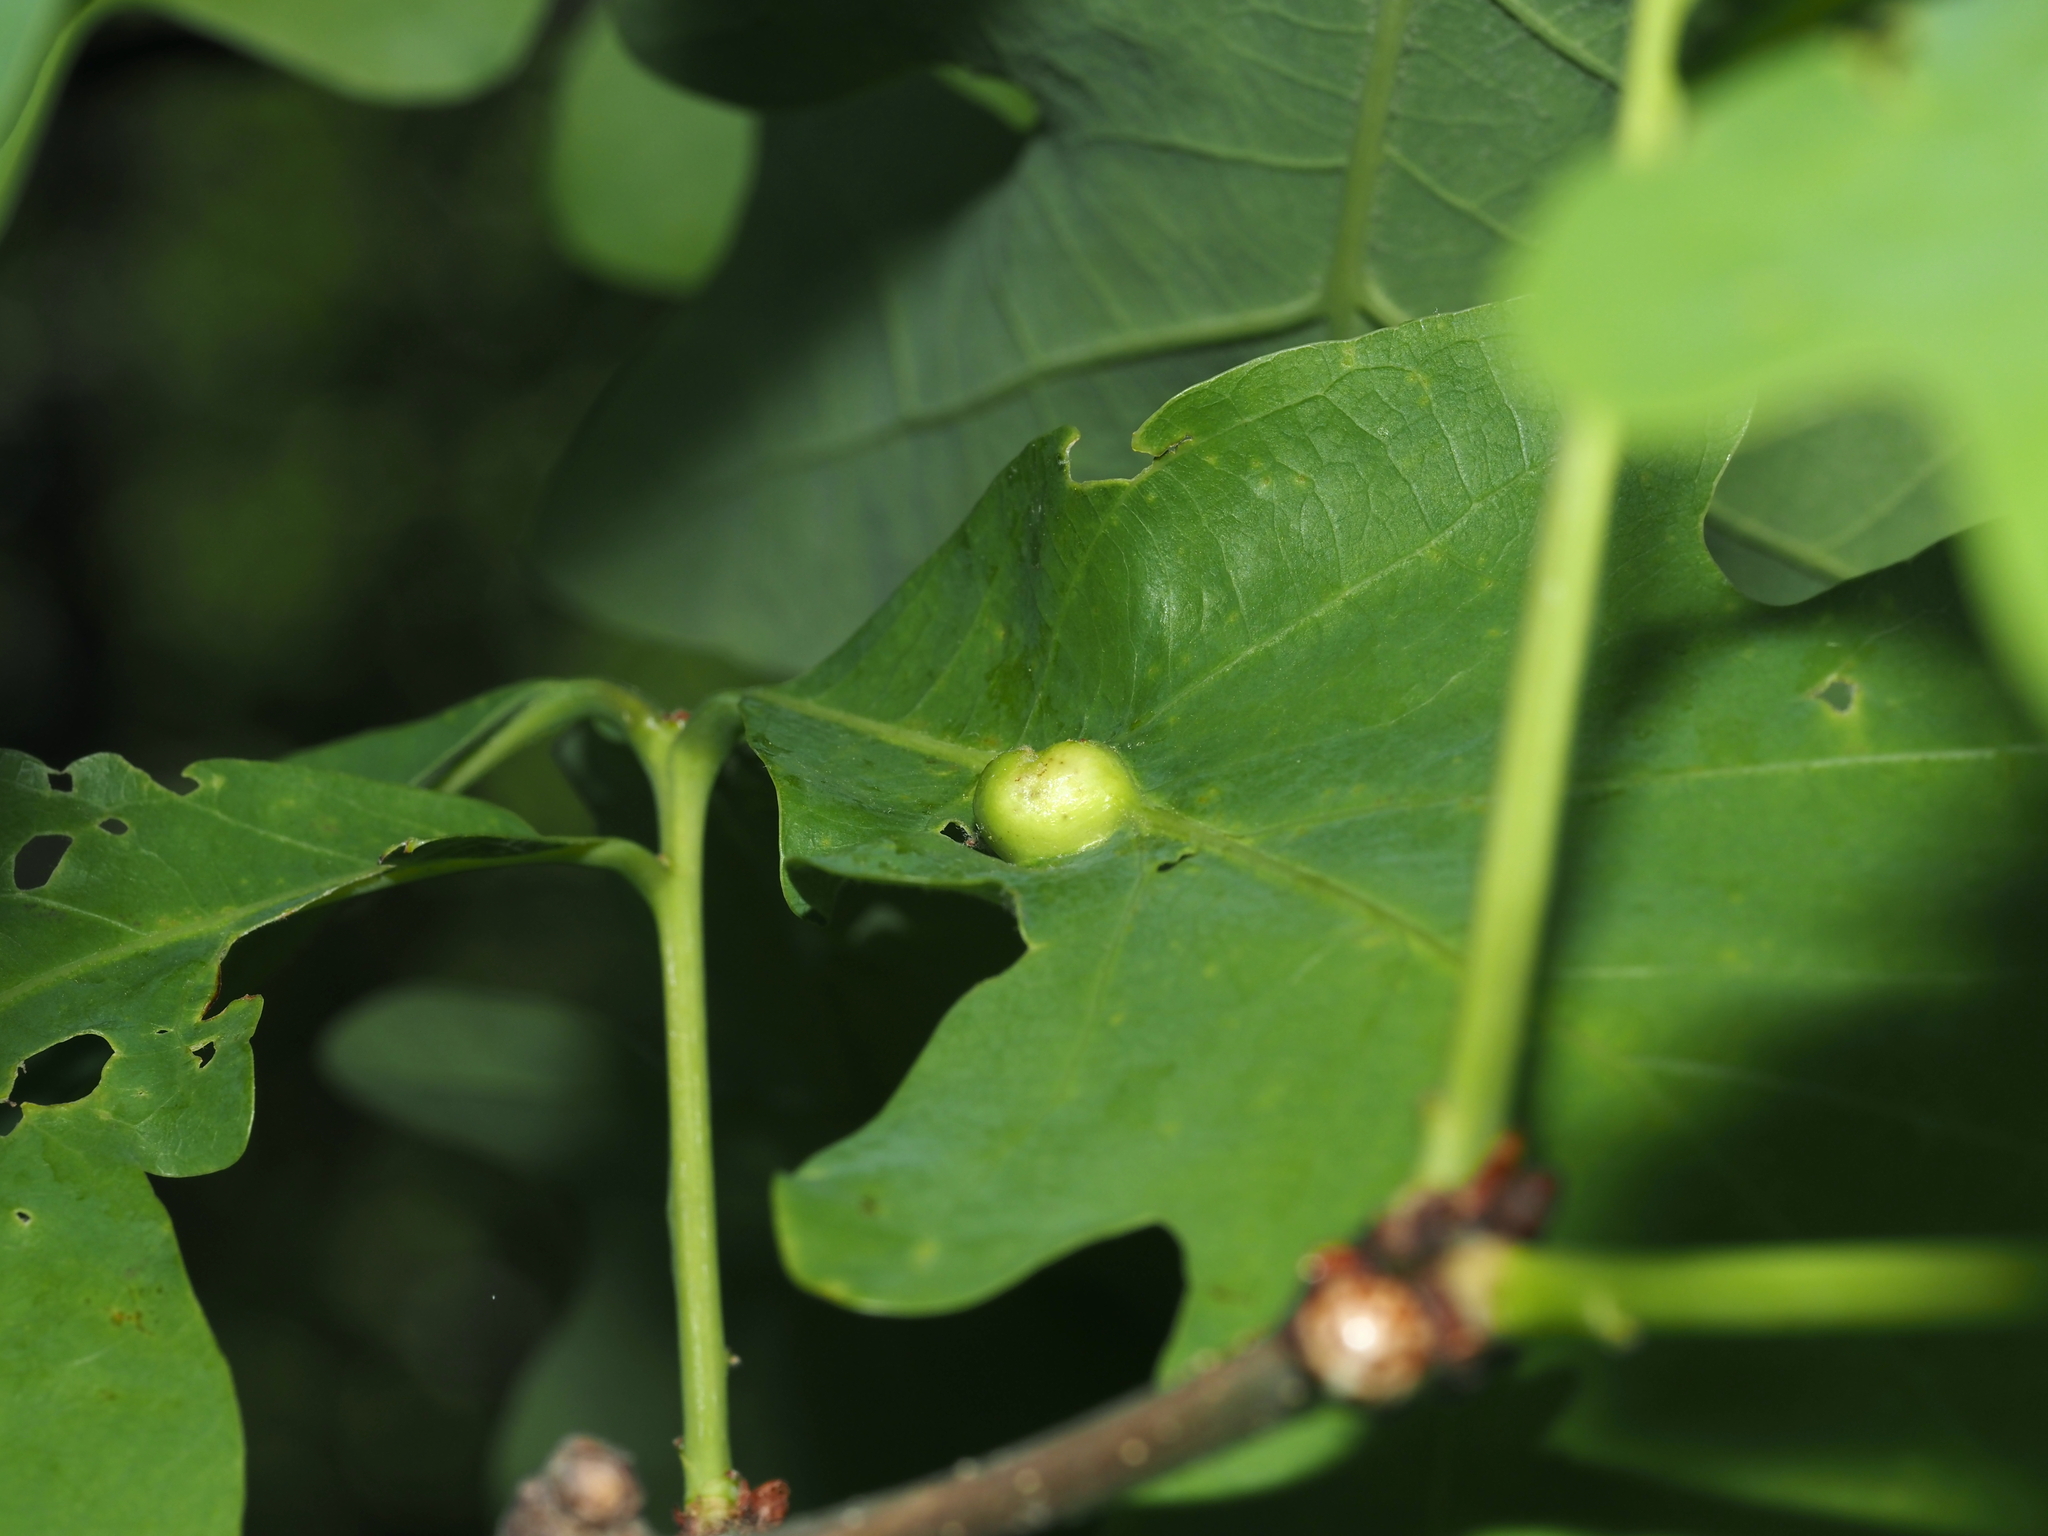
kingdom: Animalia
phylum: Arthropoda
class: Insecta
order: Hymenoptera
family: Cynipidae
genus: Andricus
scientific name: Andricus
